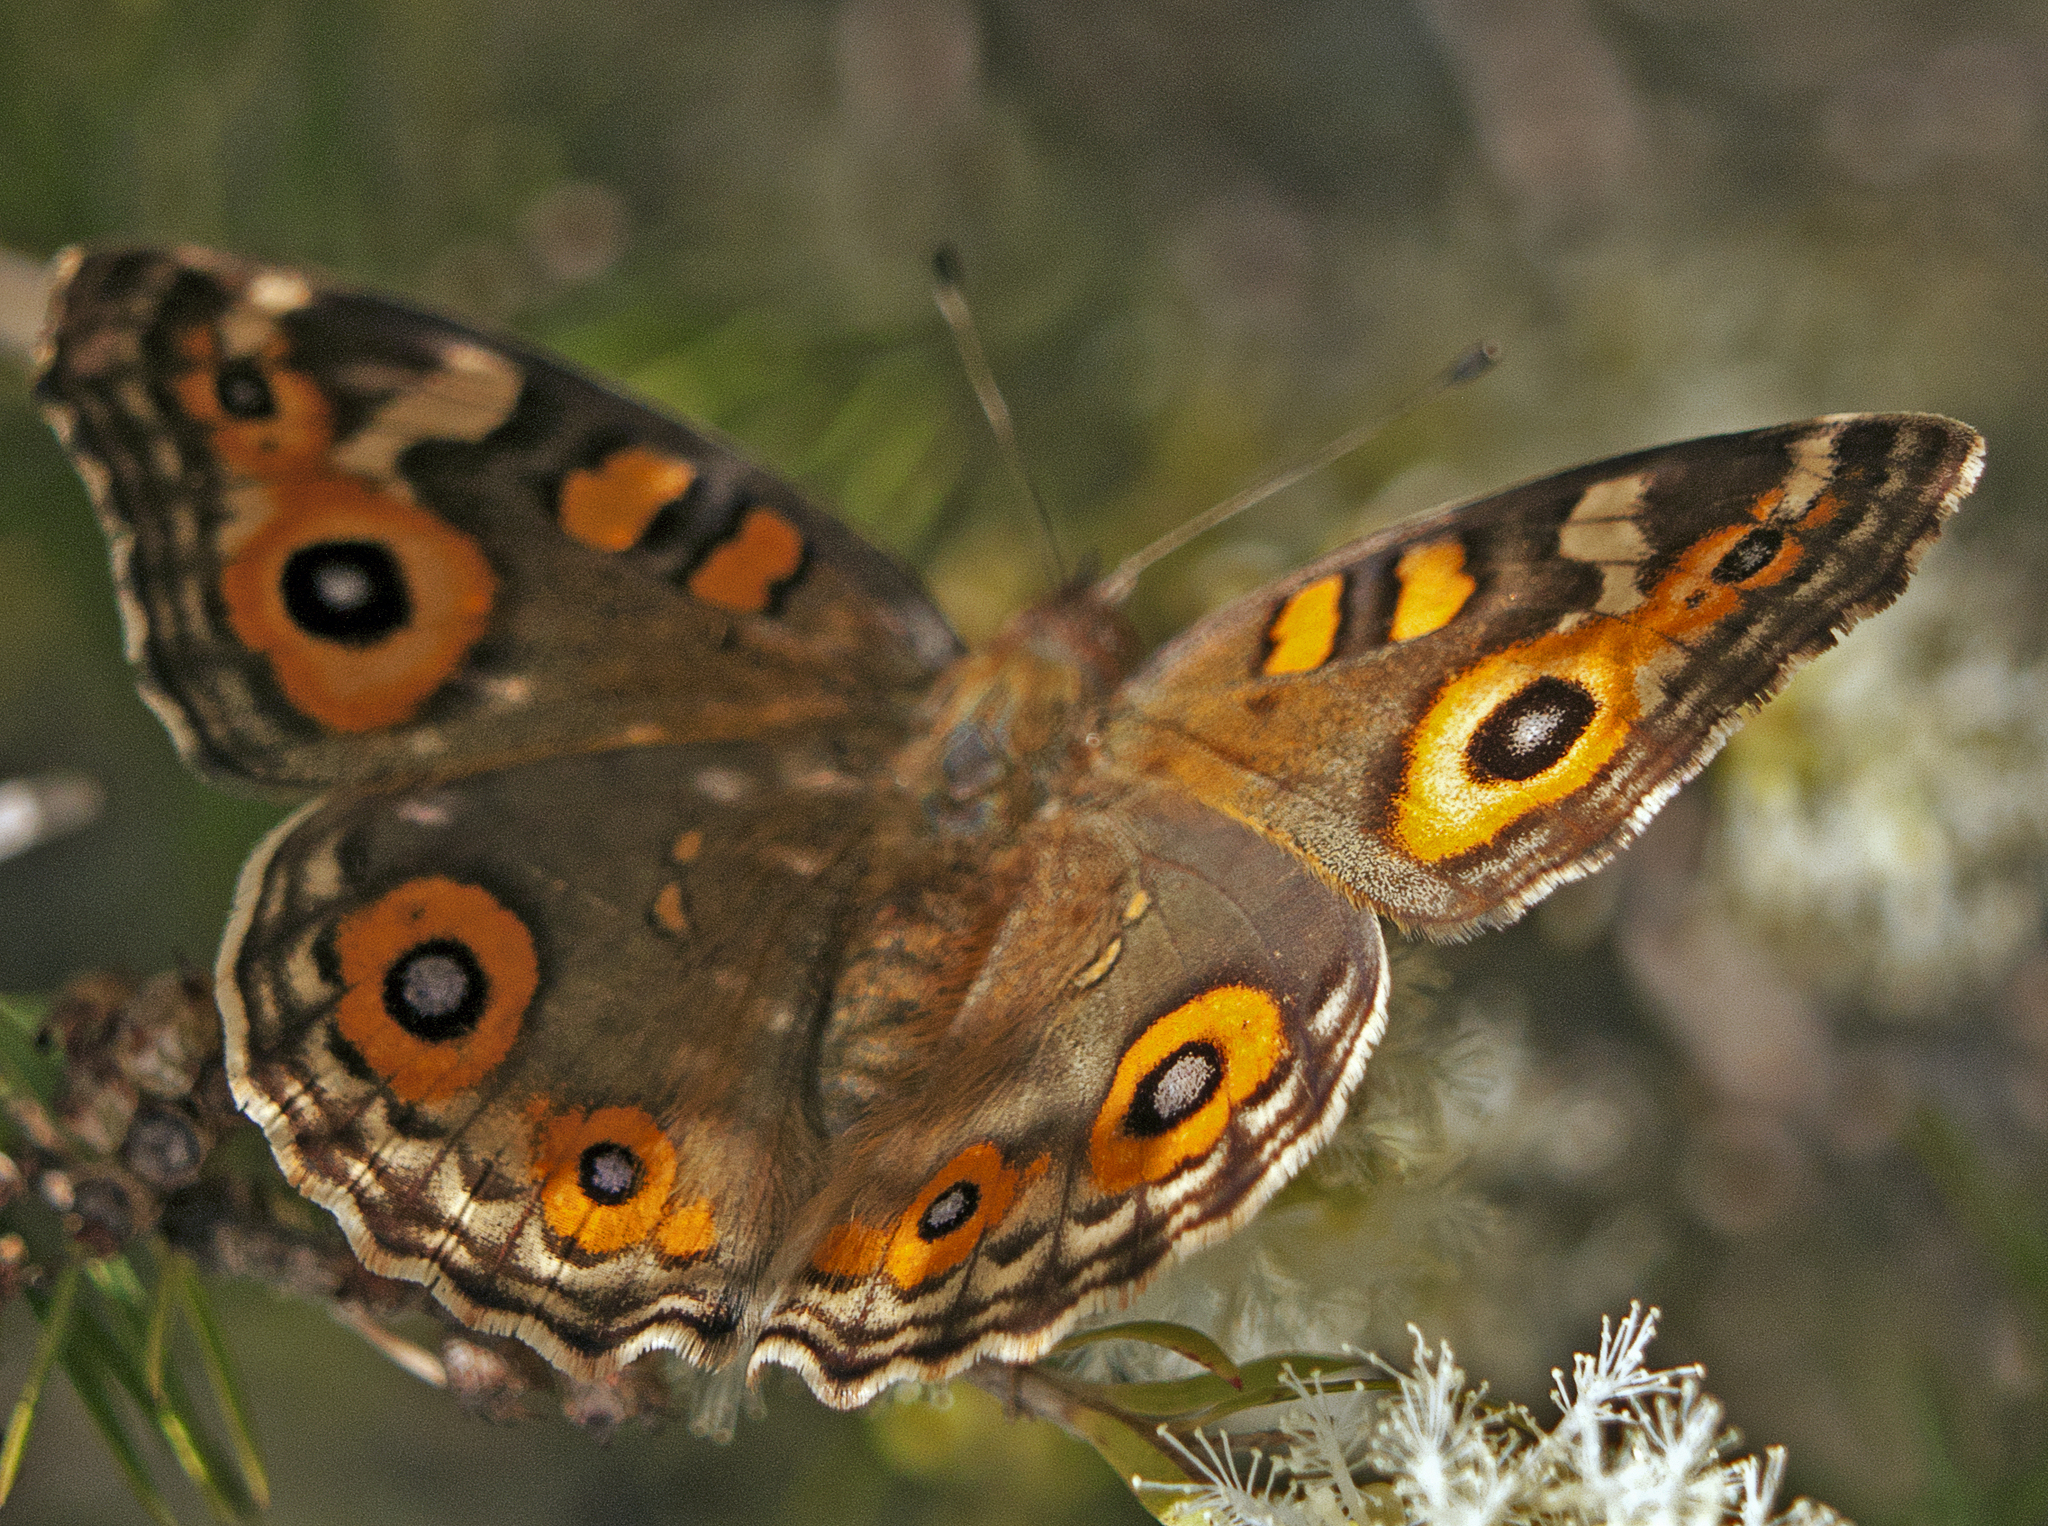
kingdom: Animalia
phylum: Arthropoda
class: Insecta
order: Lepidoptera
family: Nymphalidae
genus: Junonia
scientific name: Junonia villida
